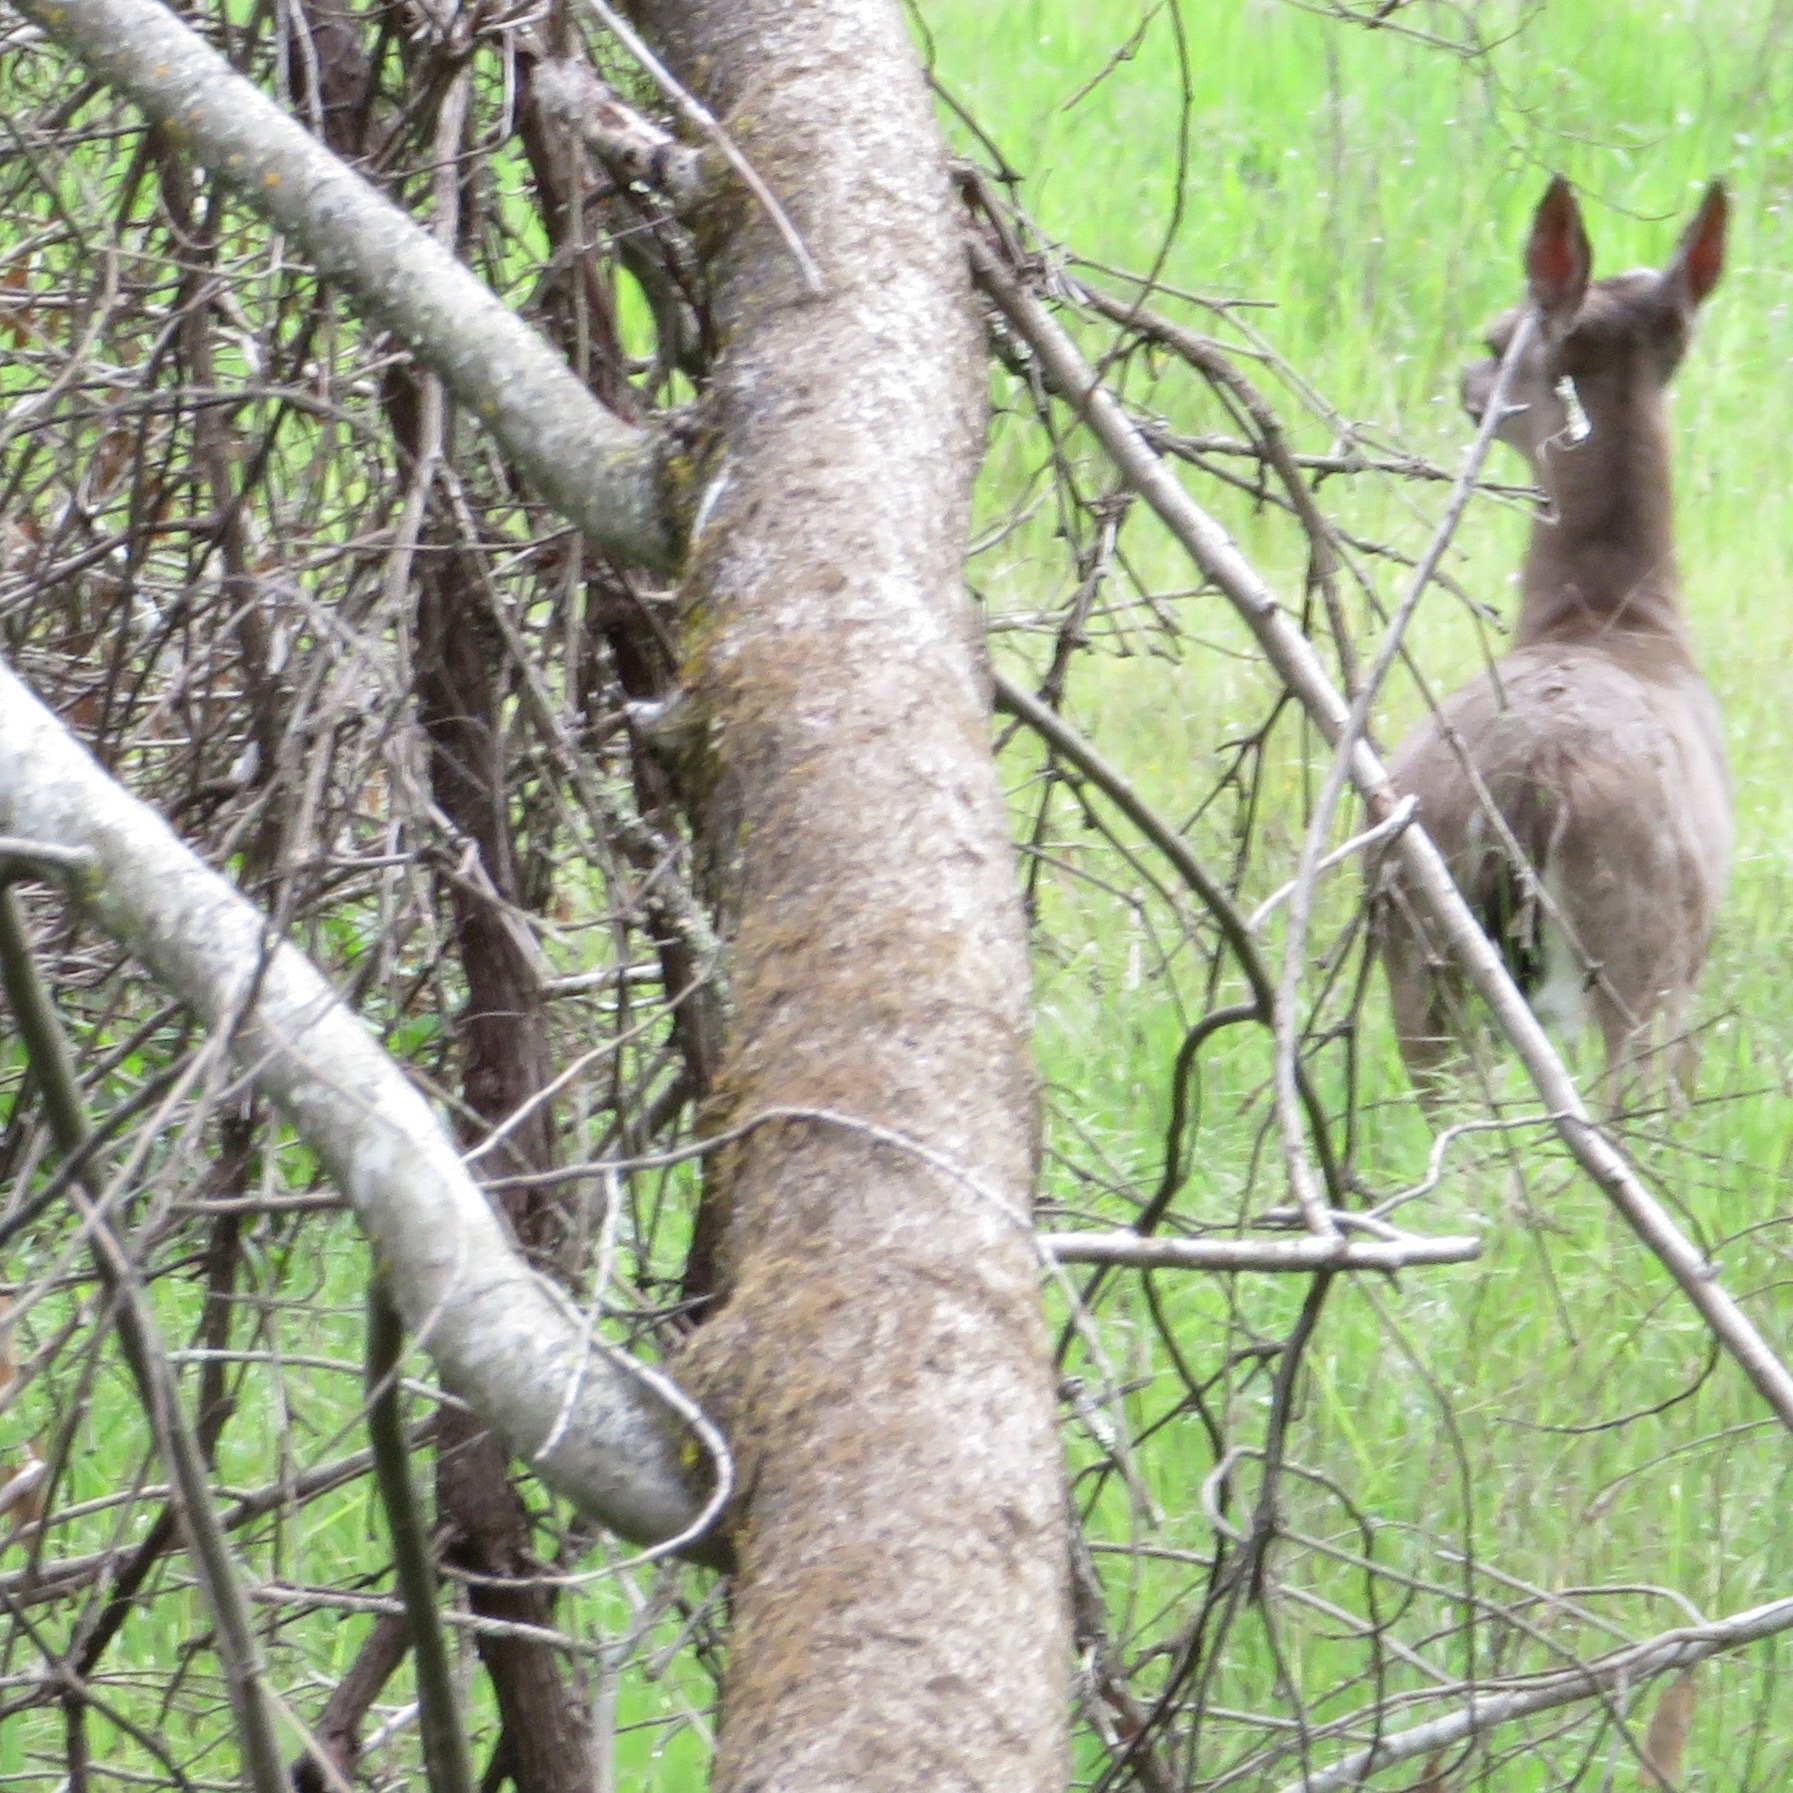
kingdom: Animalia
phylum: Chordata
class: Mammalia
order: Artiodactyla
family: Cervidae
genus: Odocoileus
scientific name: Odocoileus hemionus
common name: Mule deer
